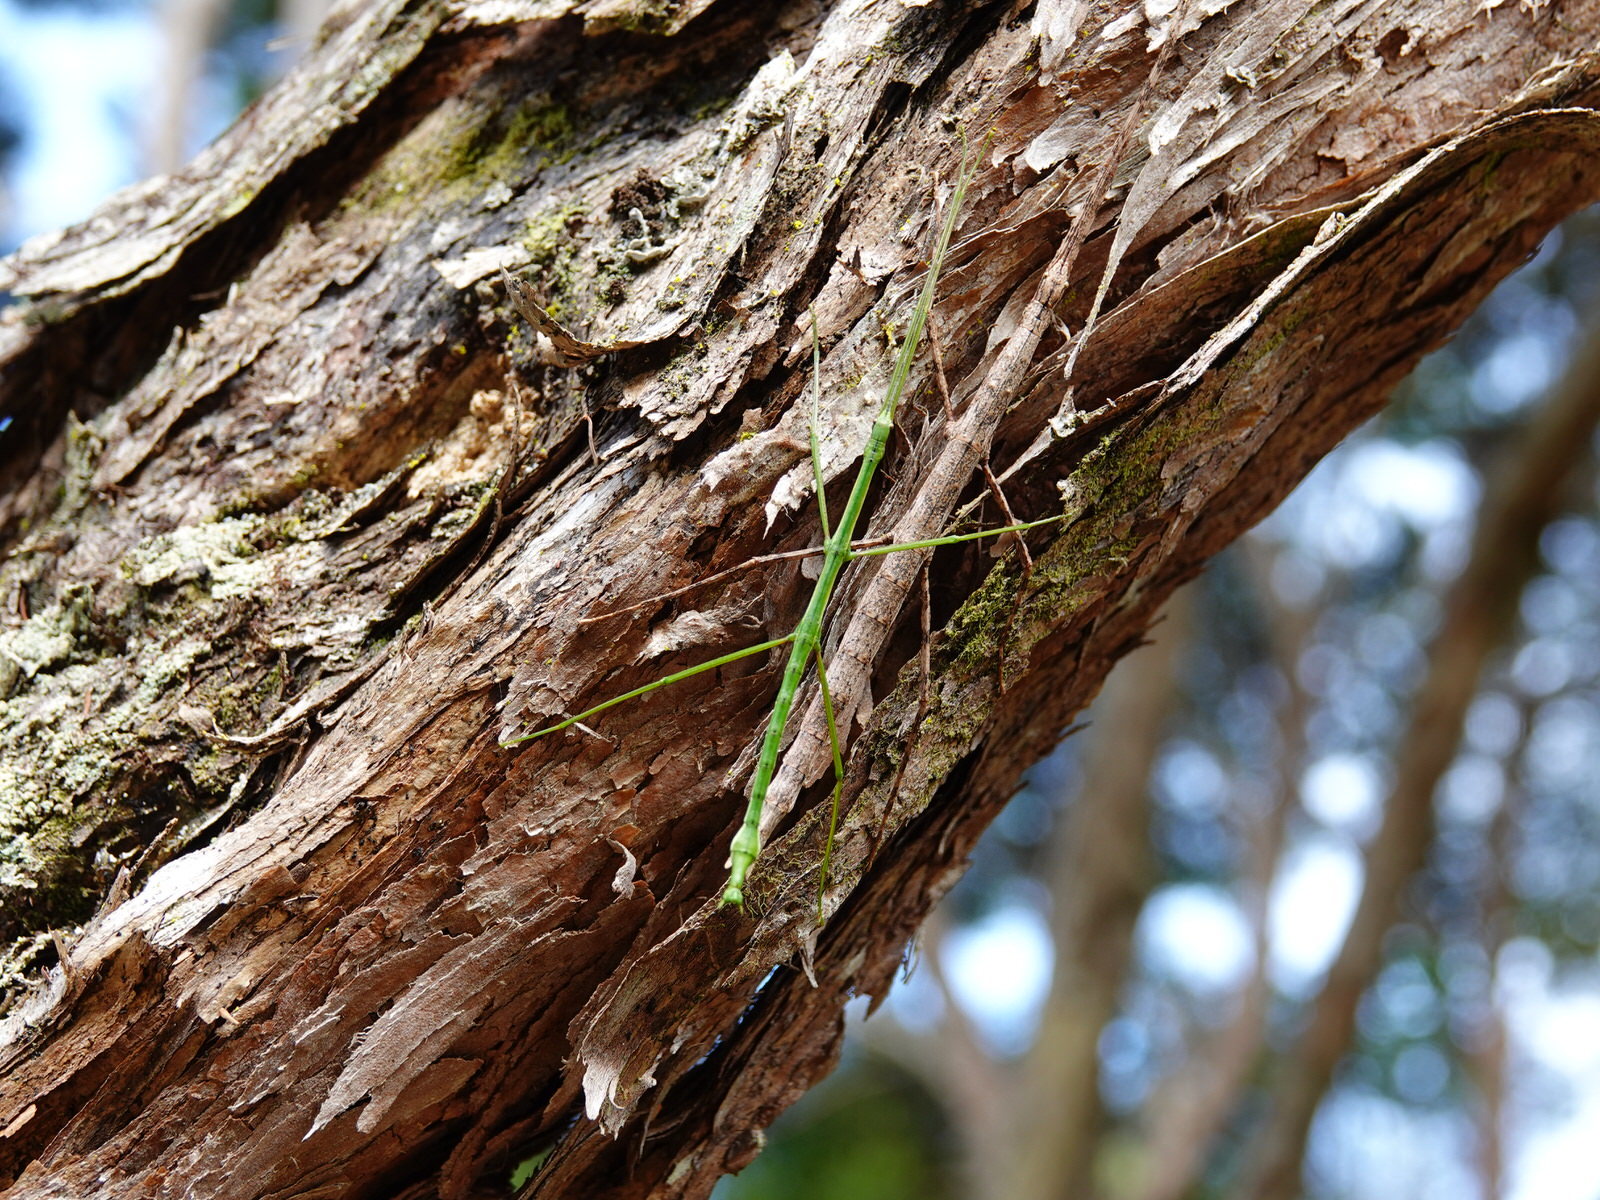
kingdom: Animalia
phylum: Arthropoda
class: Insecta
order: Phasmida
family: Phasmatidae
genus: Clitarchus
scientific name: Clitarchus hookeri
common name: Smooth stick insect
